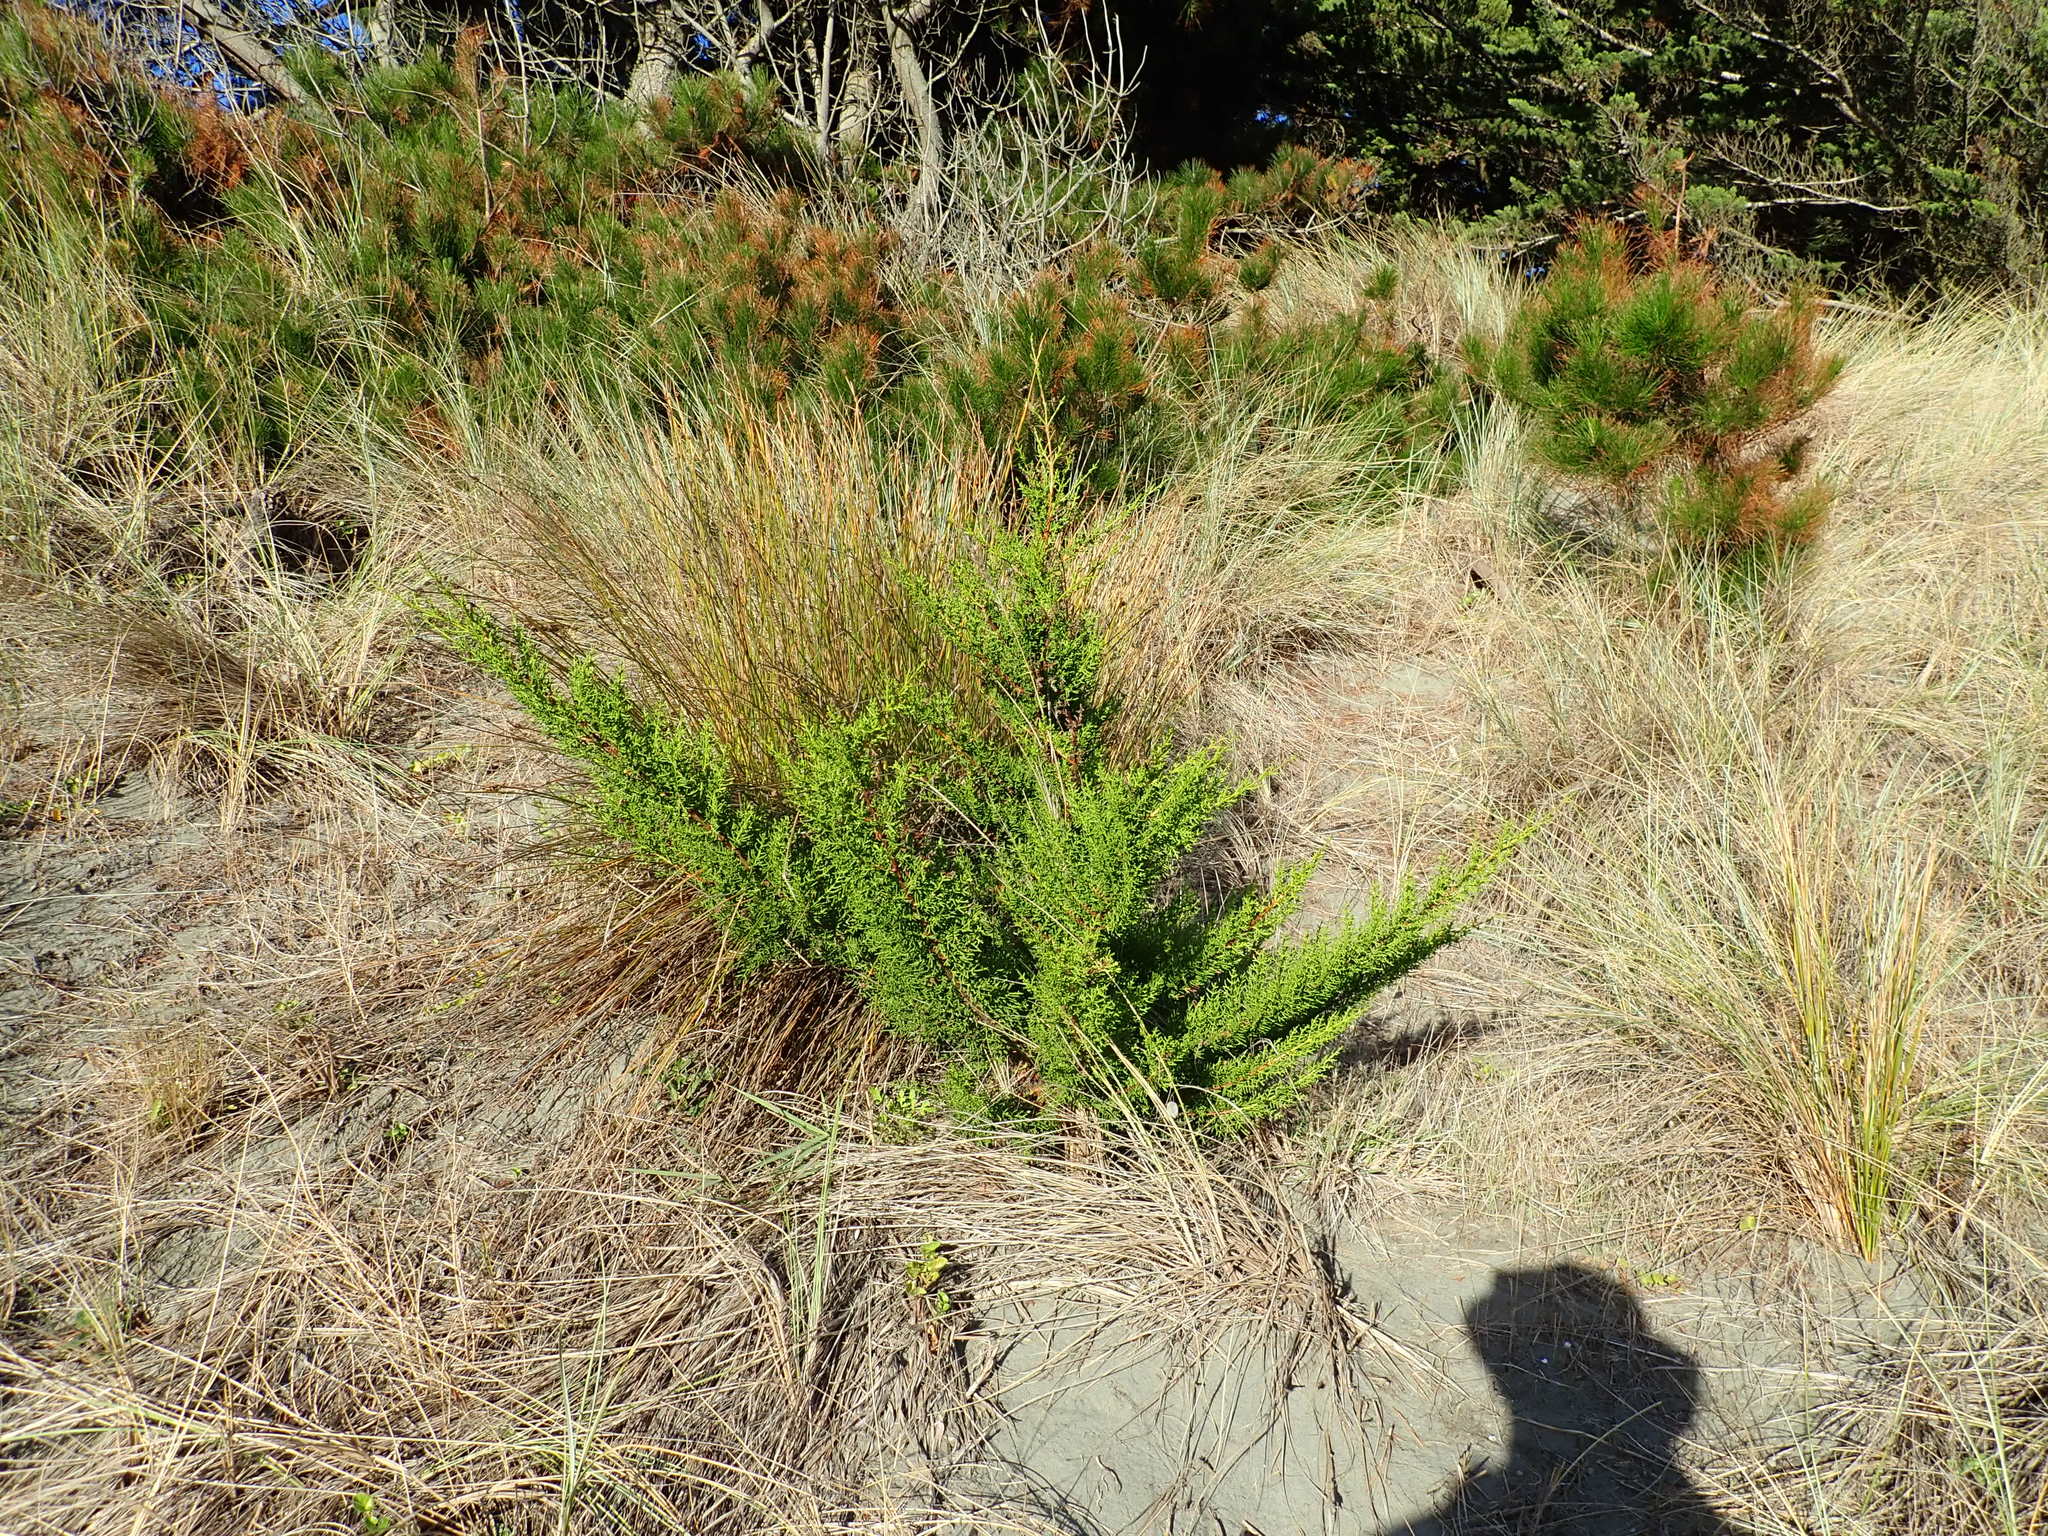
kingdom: Plantae
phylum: Tracheophyta
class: Pinopsida
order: Pinales
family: Cupressaceae
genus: Cupressus
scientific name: Cupressus macrocarpa
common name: Monterey cypress
